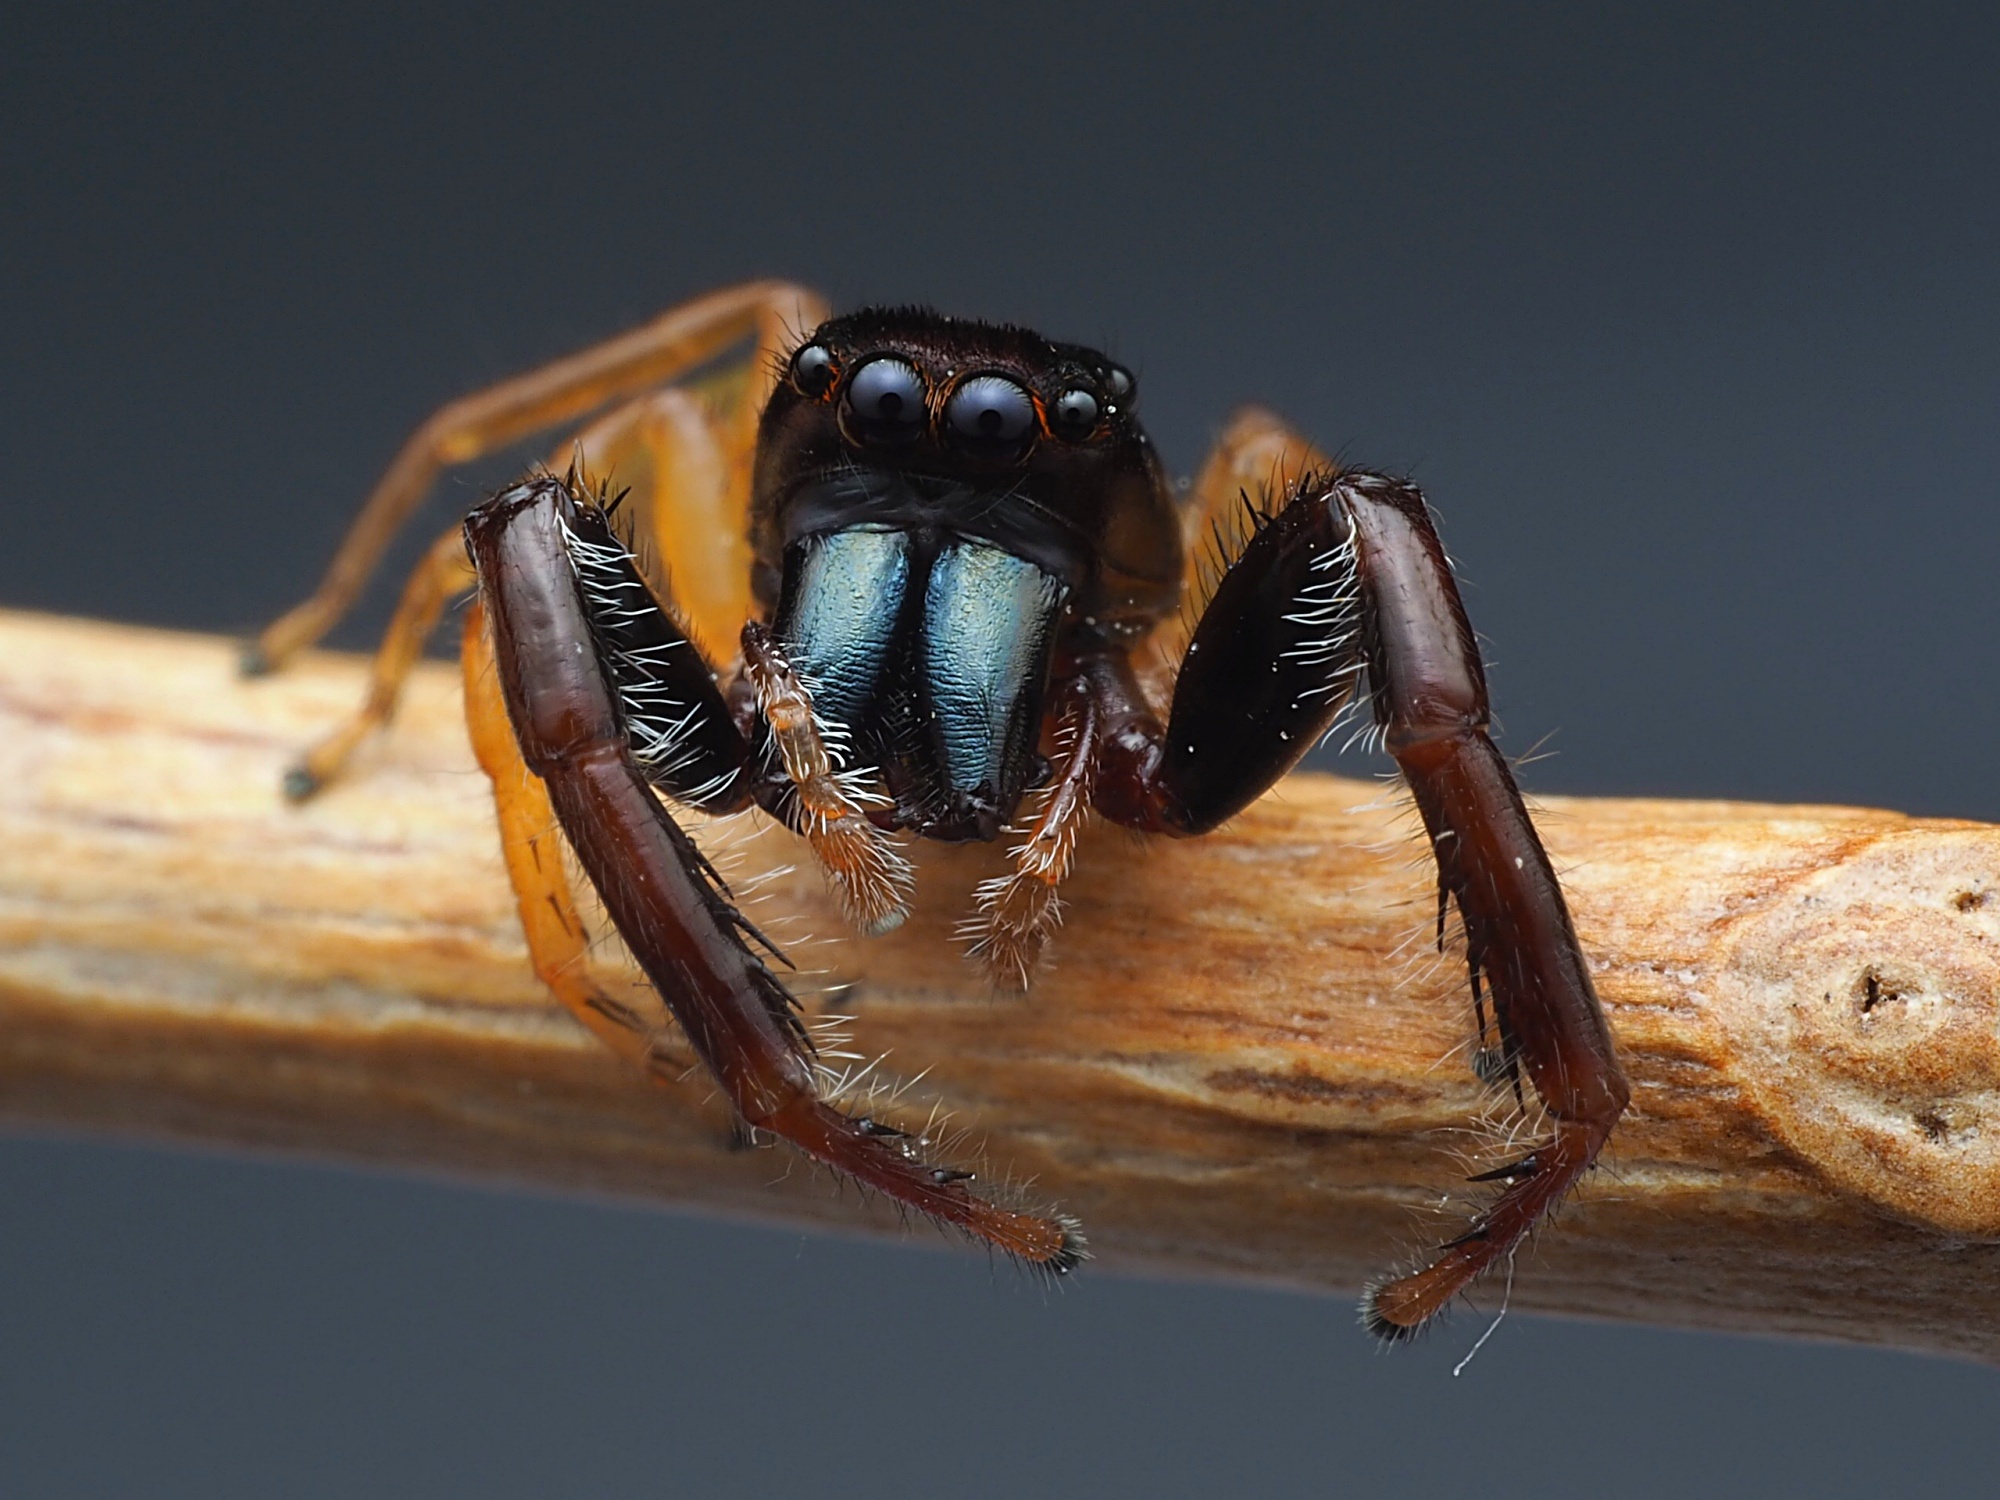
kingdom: Animalia
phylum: Arthropoda
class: Arachnida
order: Araneae
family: Salticidae
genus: Trite
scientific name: Trite planiceps
